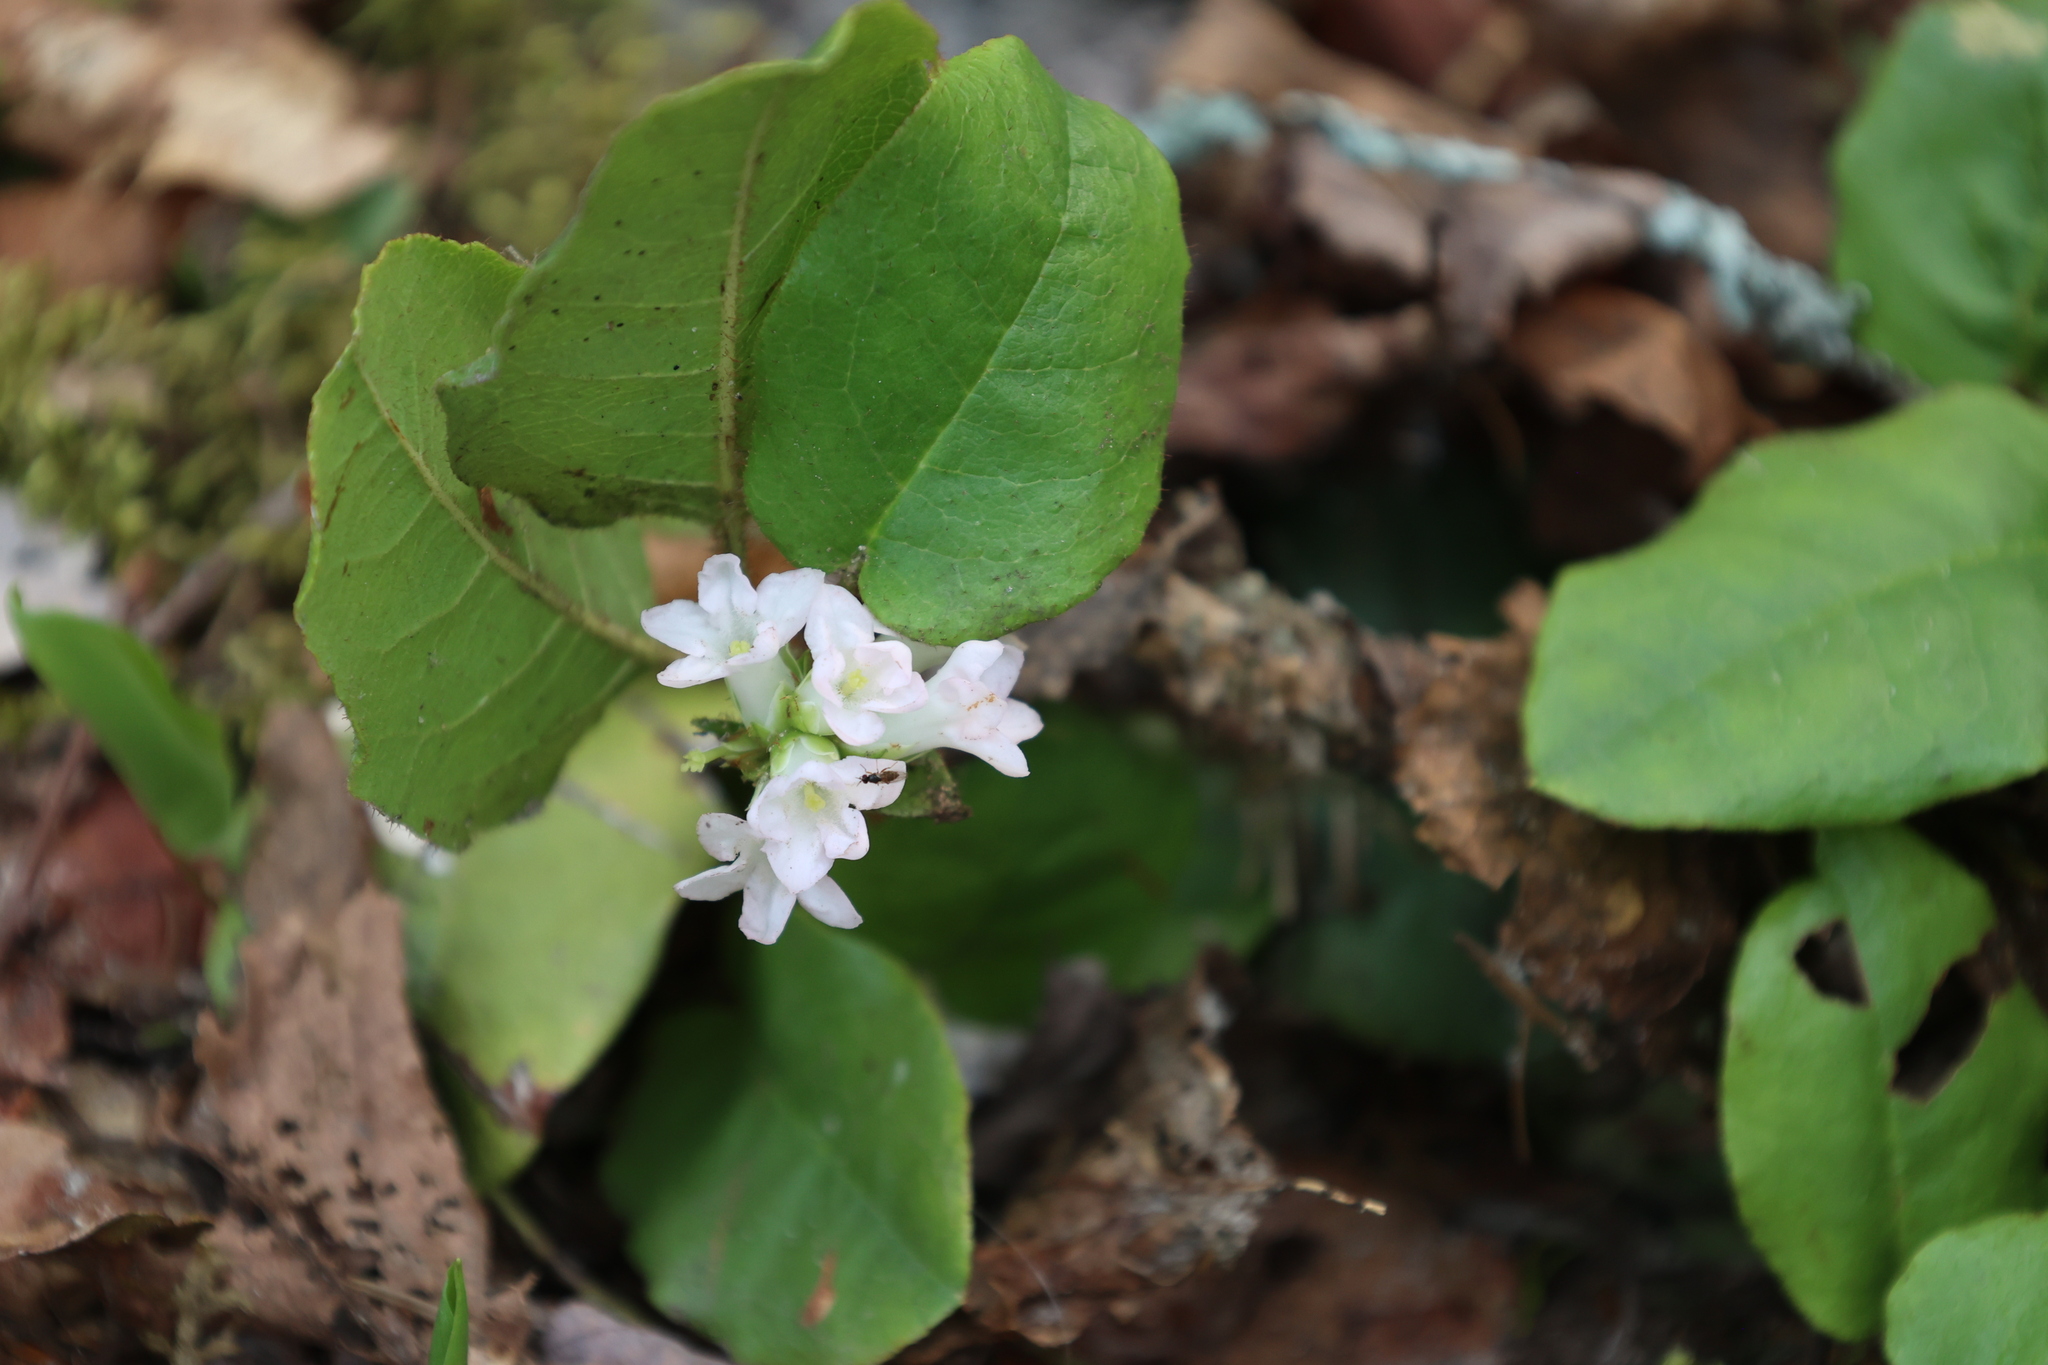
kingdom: Plantae
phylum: Tracheophyta
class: Magnoliopsida
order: Ericales
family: Ericaceae
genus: Epigaea
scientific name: Epigaea repens
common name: Gravelroot
